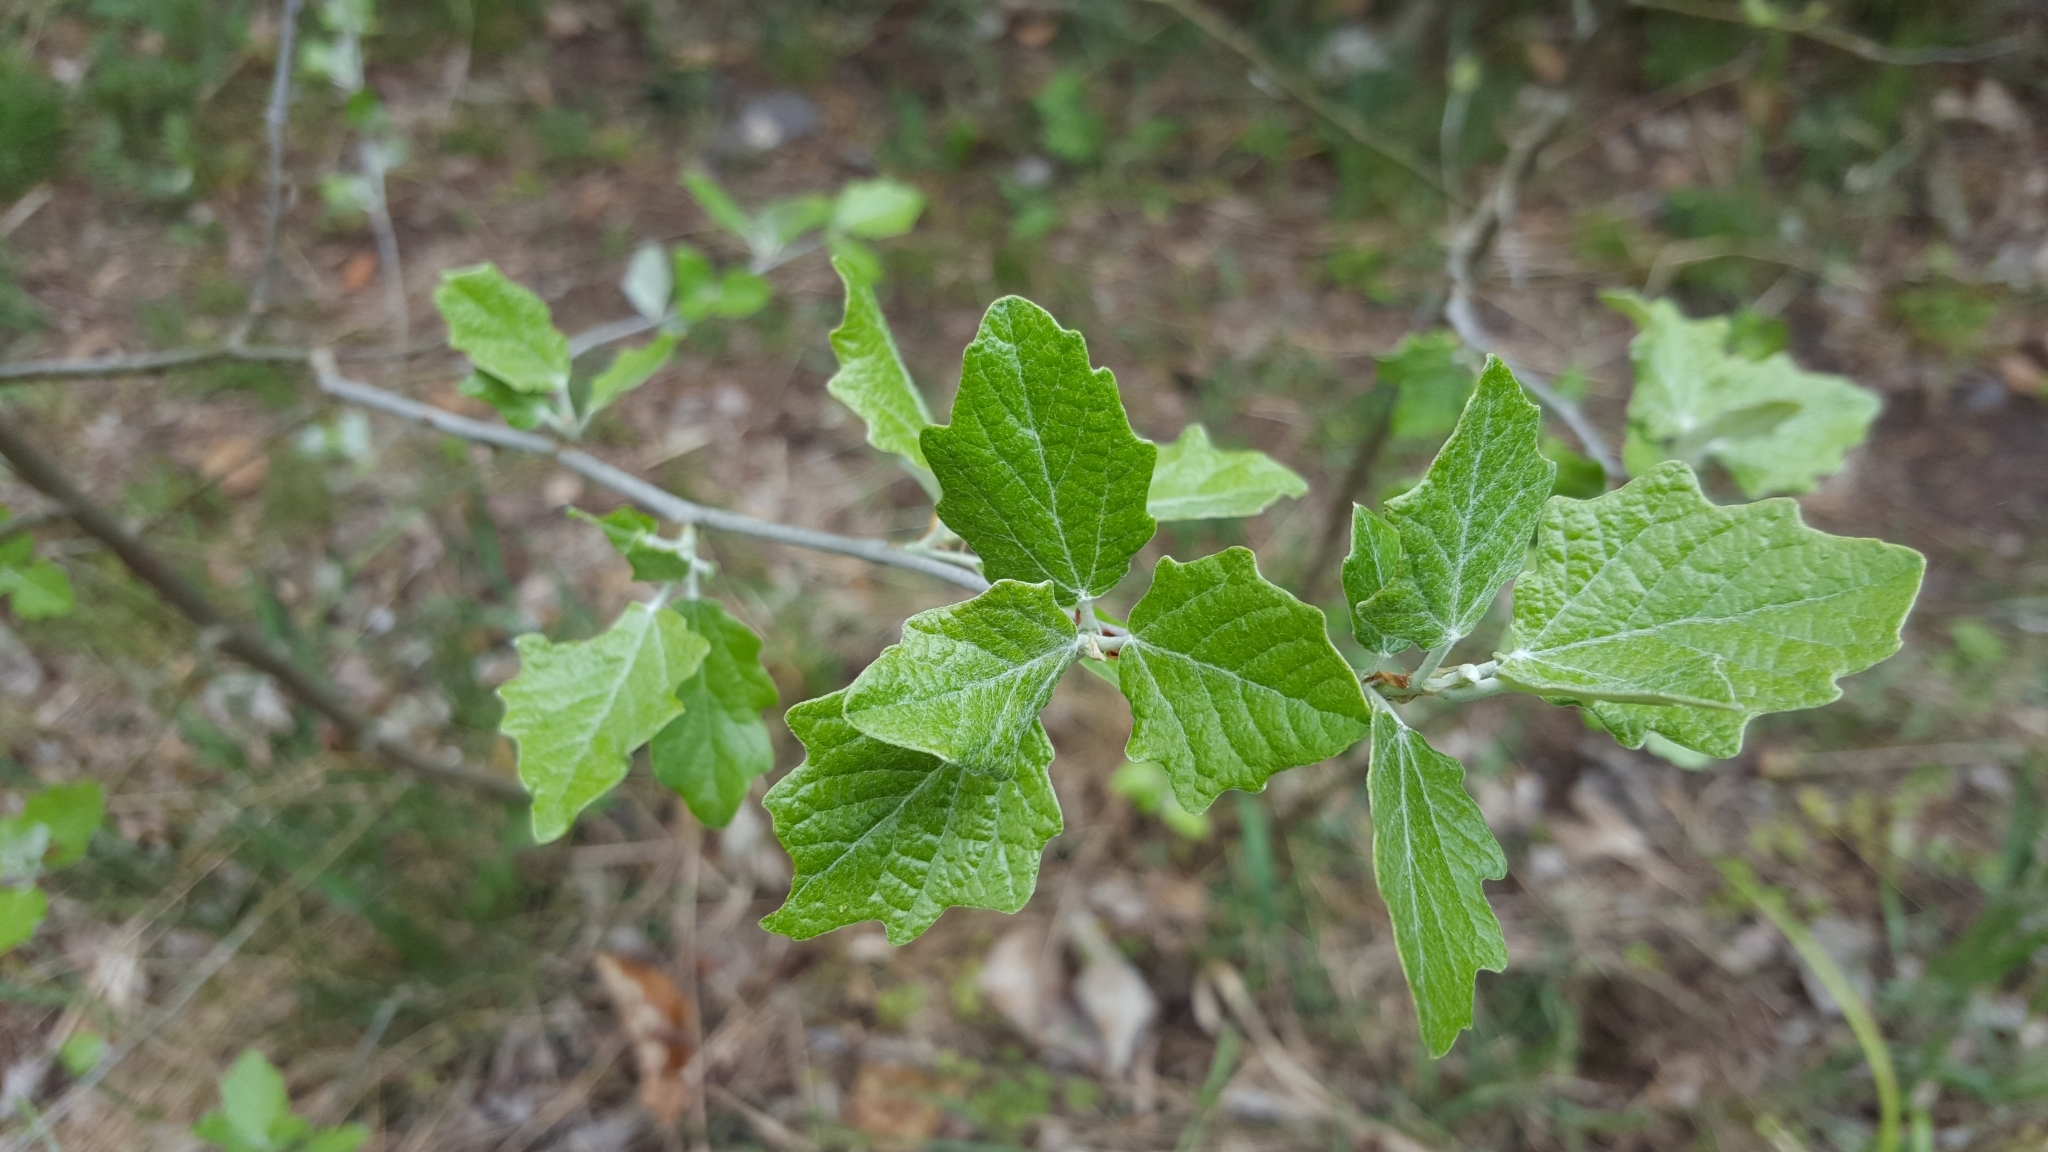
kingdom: Plantae
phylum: Tracheophyta
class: Magnoliopsida
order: Malpighiales
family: Salicaceae
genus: Populus
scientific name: Populus alba
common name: White poplar
